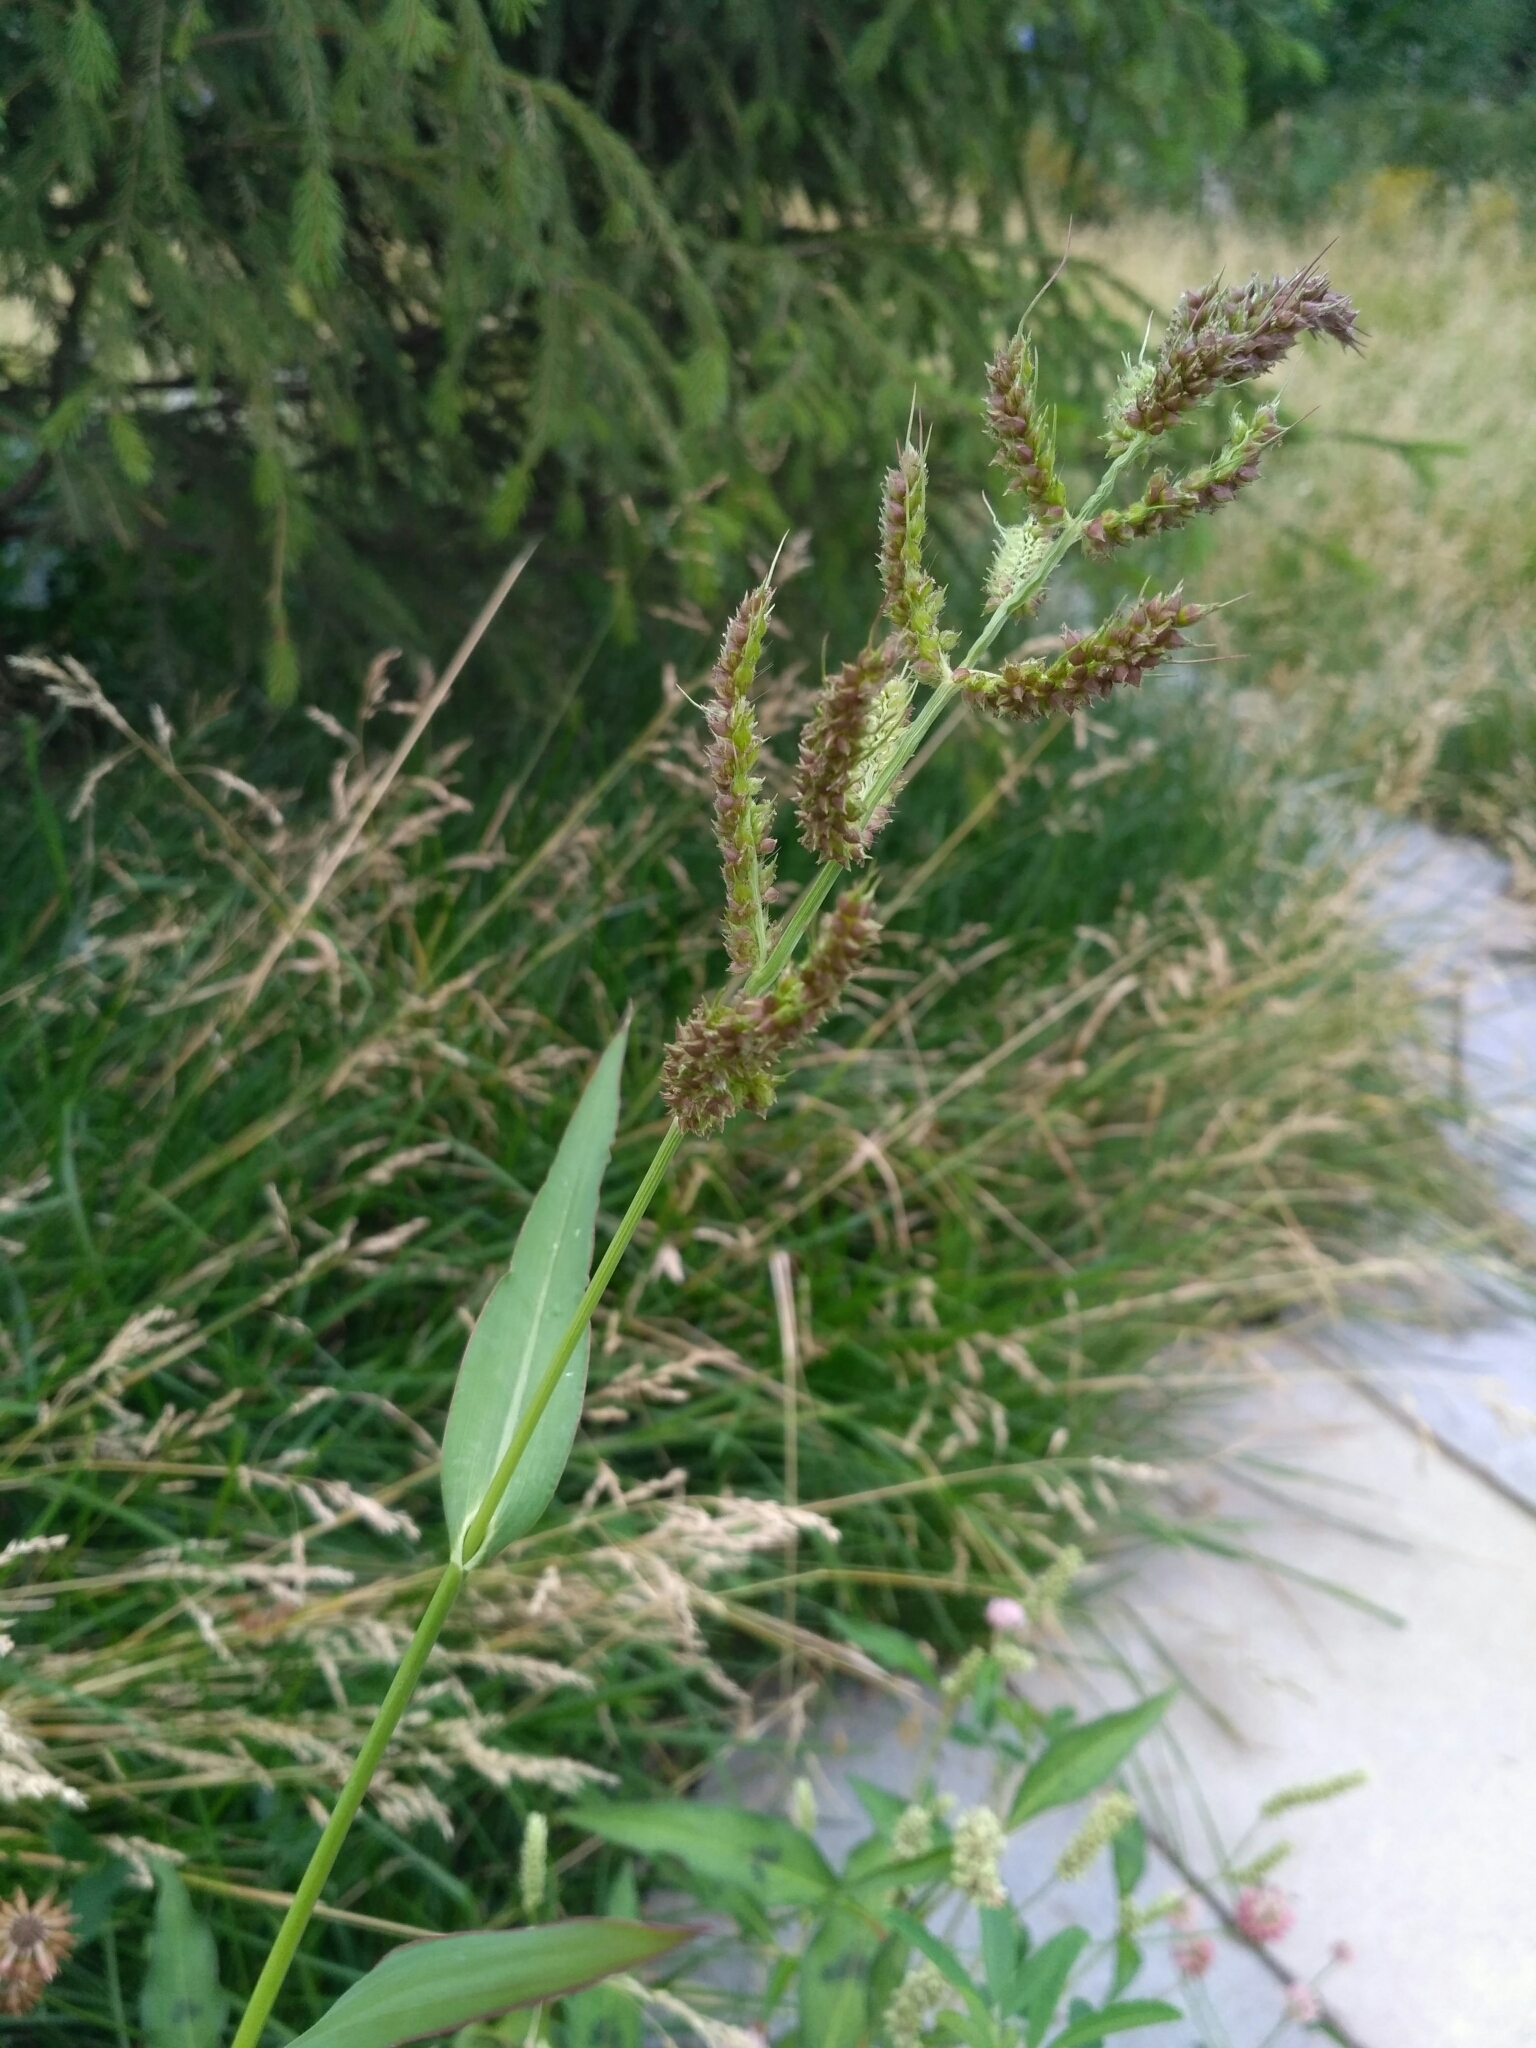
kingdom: Plantae
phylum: Tracheophyta
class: Liliopsida
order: Poales
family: Poaceae
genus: Echinochloa
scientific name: Echinochloa crus-galli
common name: Cockspur
